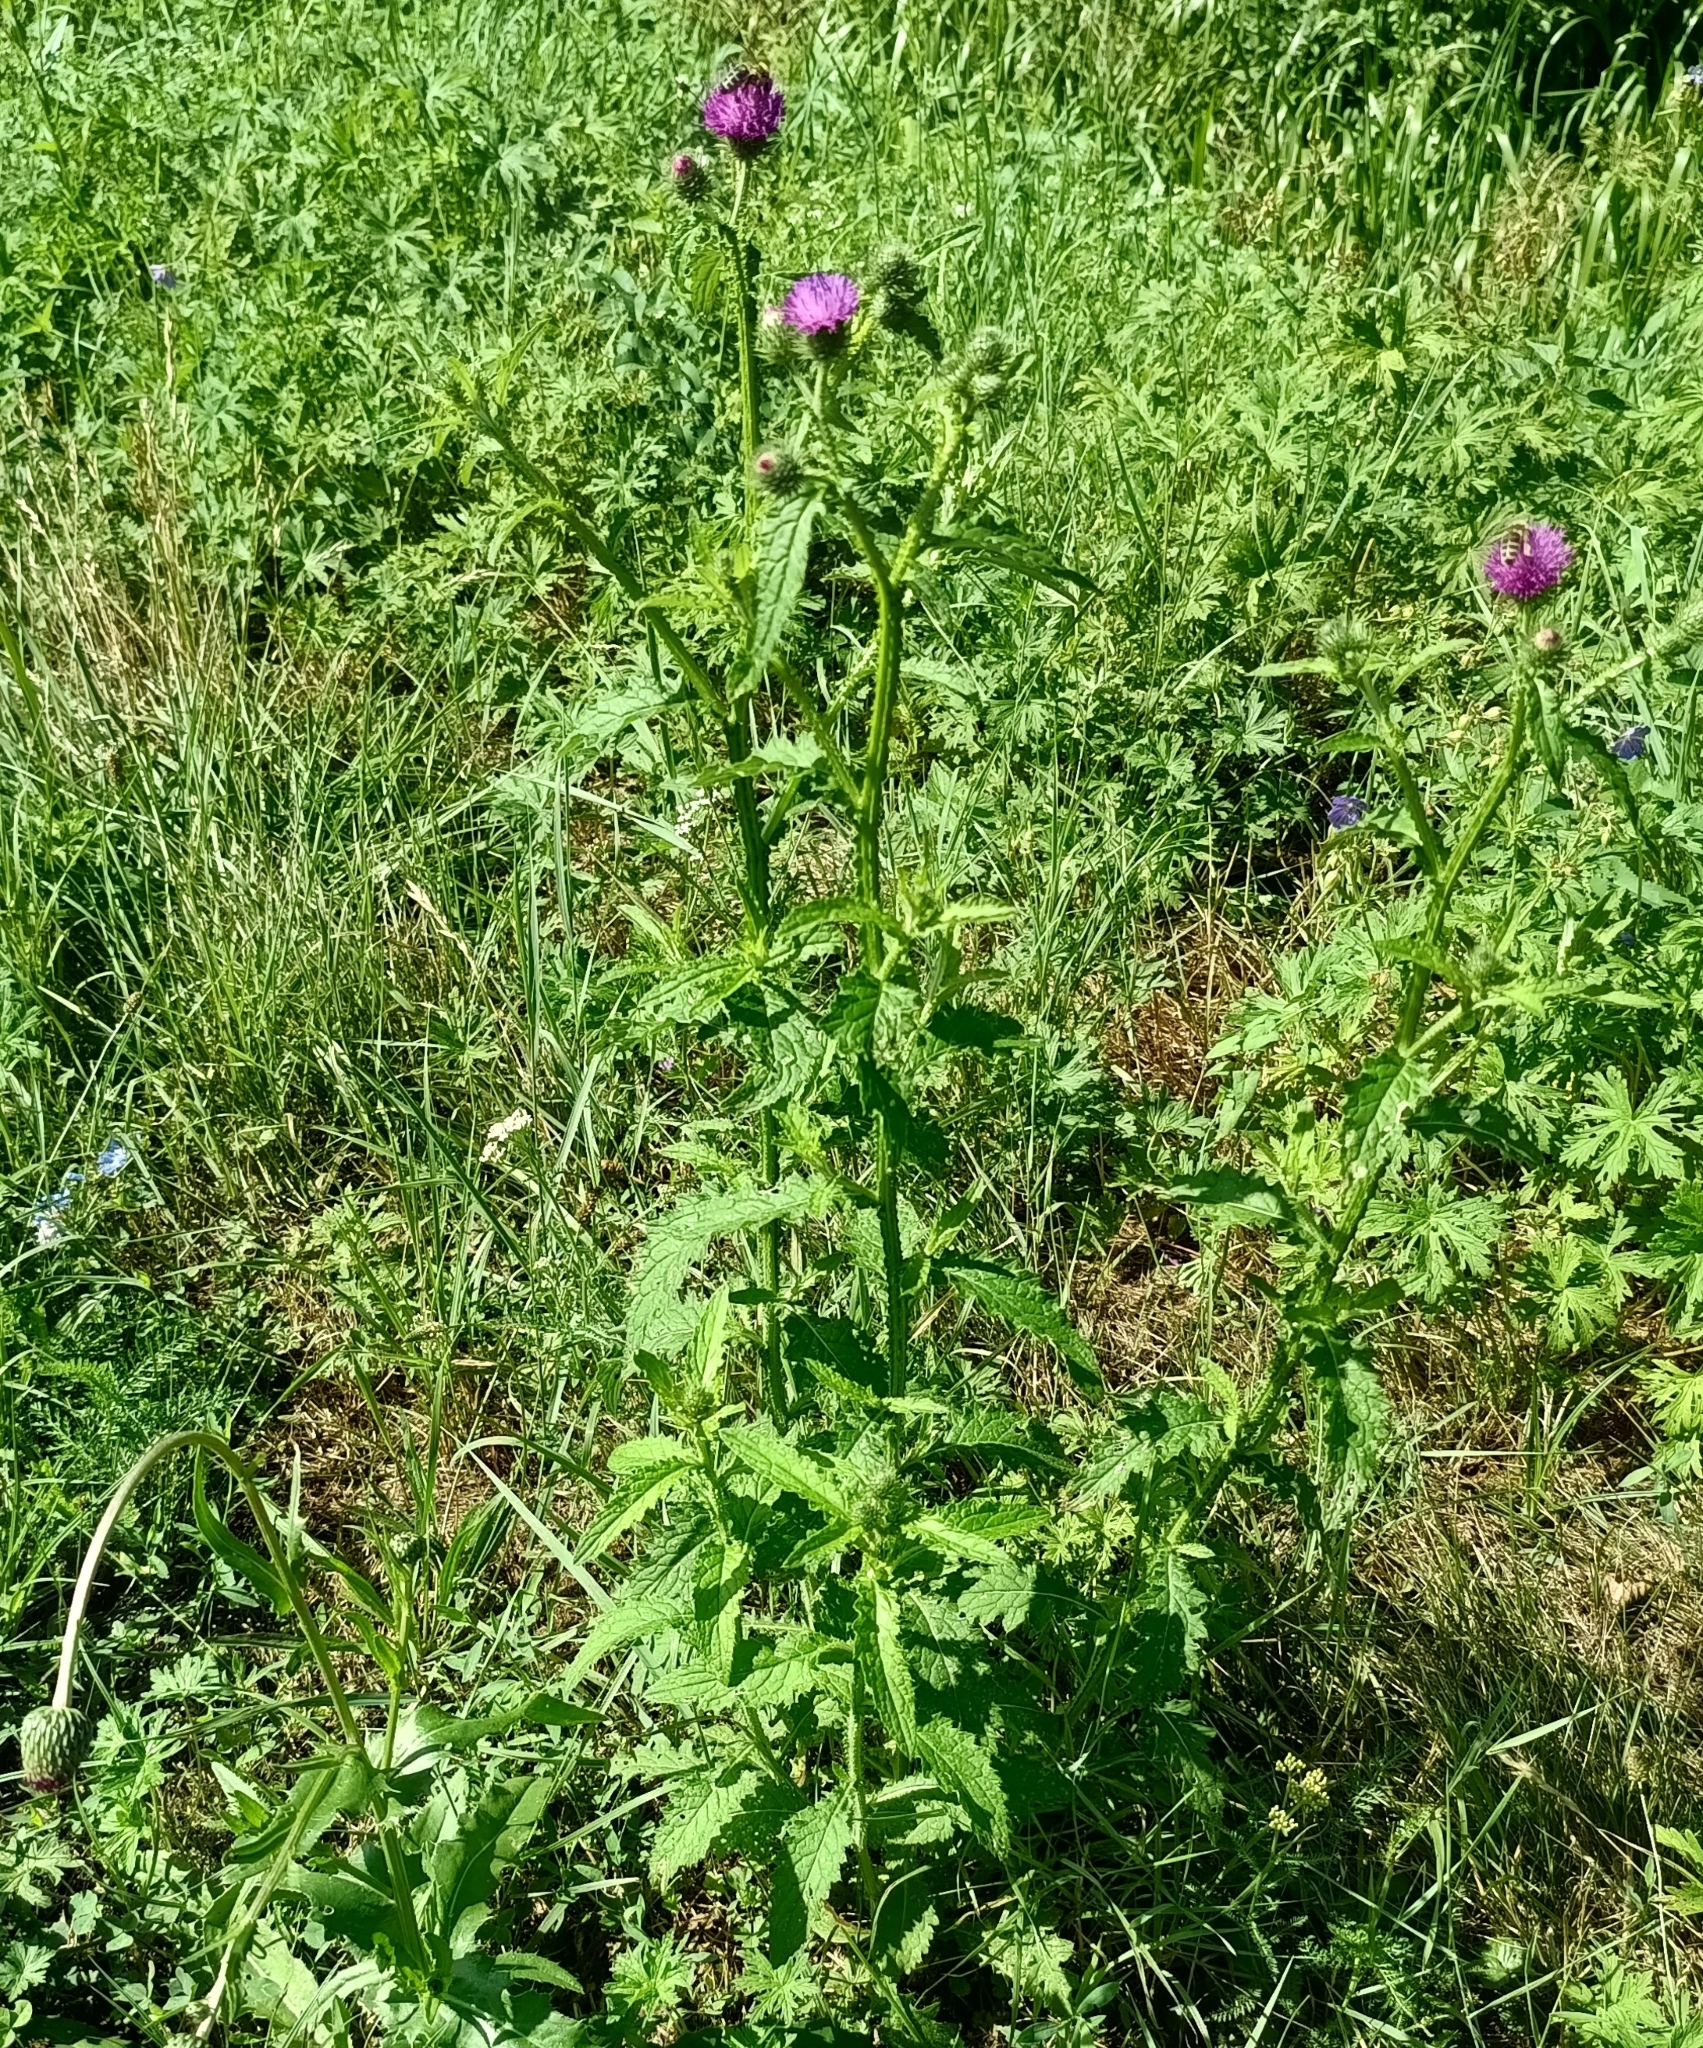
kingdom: Plantae
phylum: Tracheophyta
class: Magnoliopsida
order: Asterales
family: Asteraceae
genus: Carduus
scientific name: Carduus crispus
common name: Welted thistle
